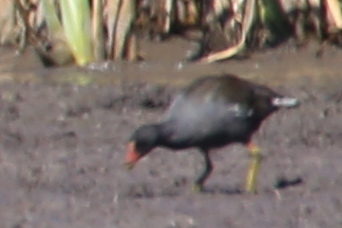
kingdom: Animalia
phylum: Chordata
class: Aves
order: Gruiformes
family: Rallidae
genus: Gallinula
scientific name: Gallinula chloropus
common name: Common moorhen
